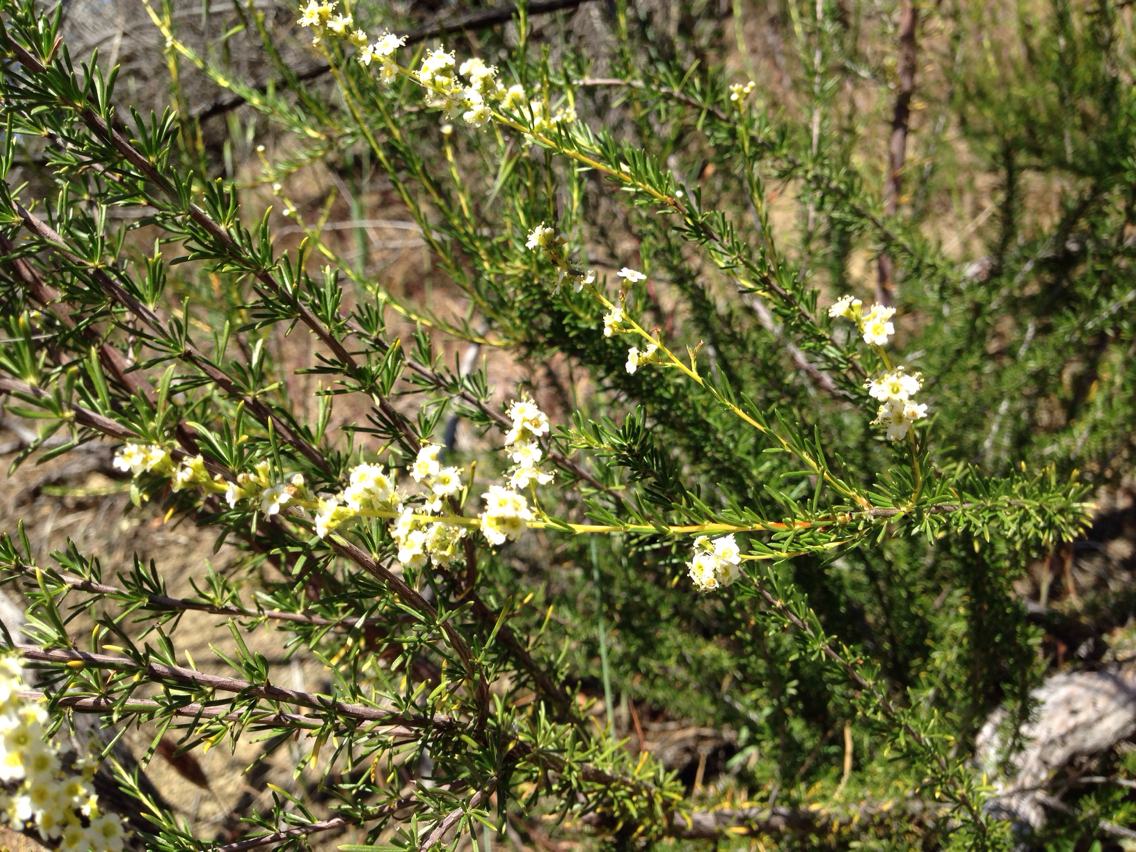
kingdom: Plantae
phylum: Tracheophyta
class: Magnoliopsida
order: Rosales
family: Rosaceae
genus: Adenostoma
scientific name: Adenostoma fasciculatum
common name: Chamise
